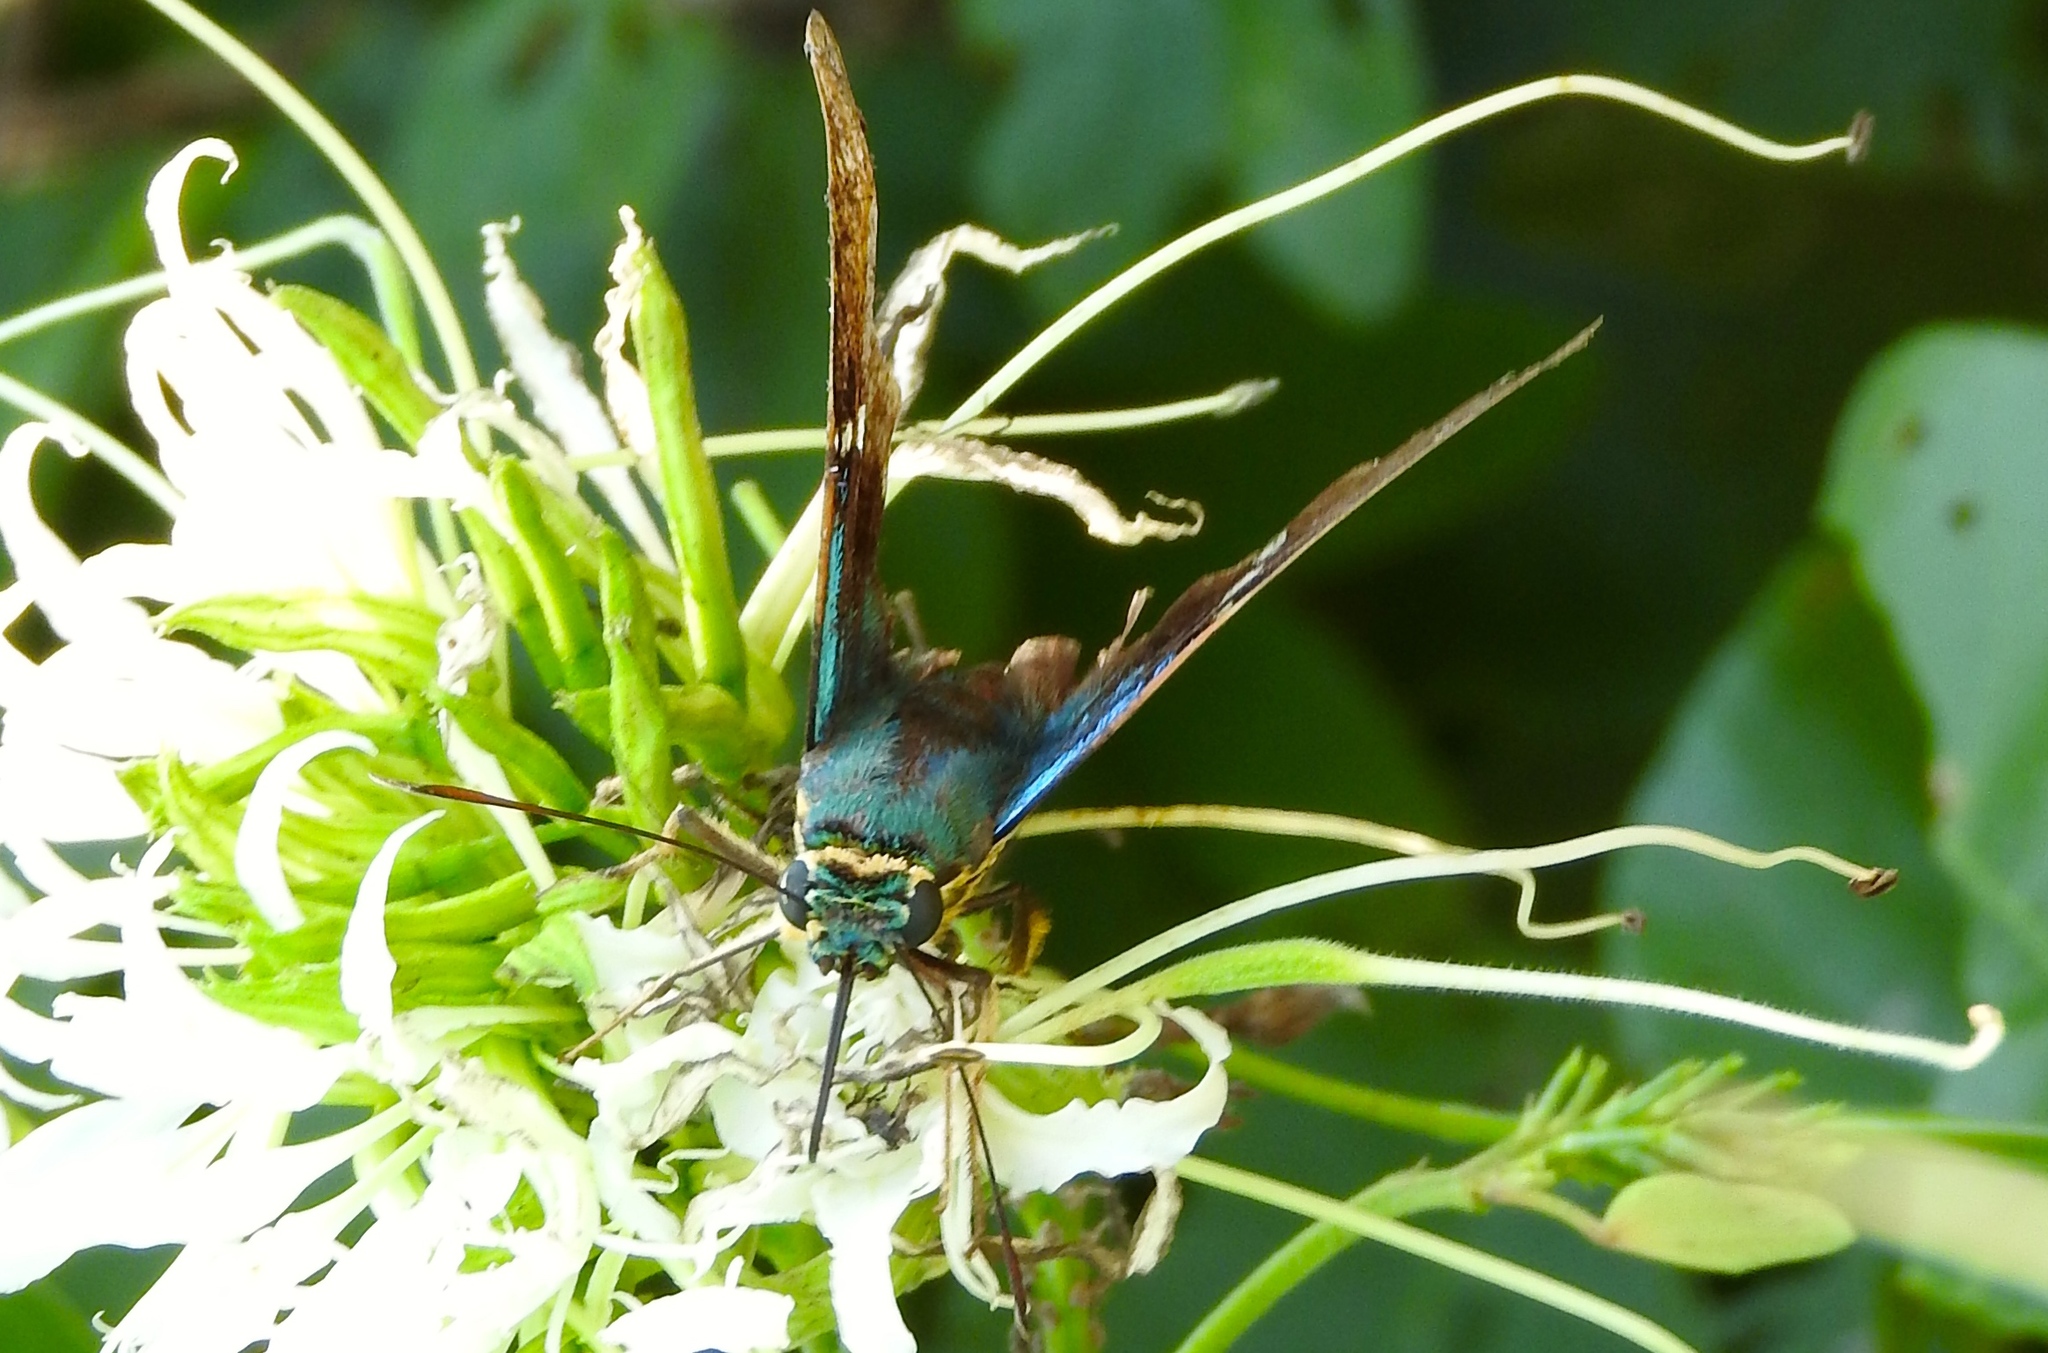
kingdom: Animalia
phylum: Arthropoda
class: Insecta
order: Lepidoptera
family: Hesperiidae
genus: Astraptes
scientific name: Astraptes
